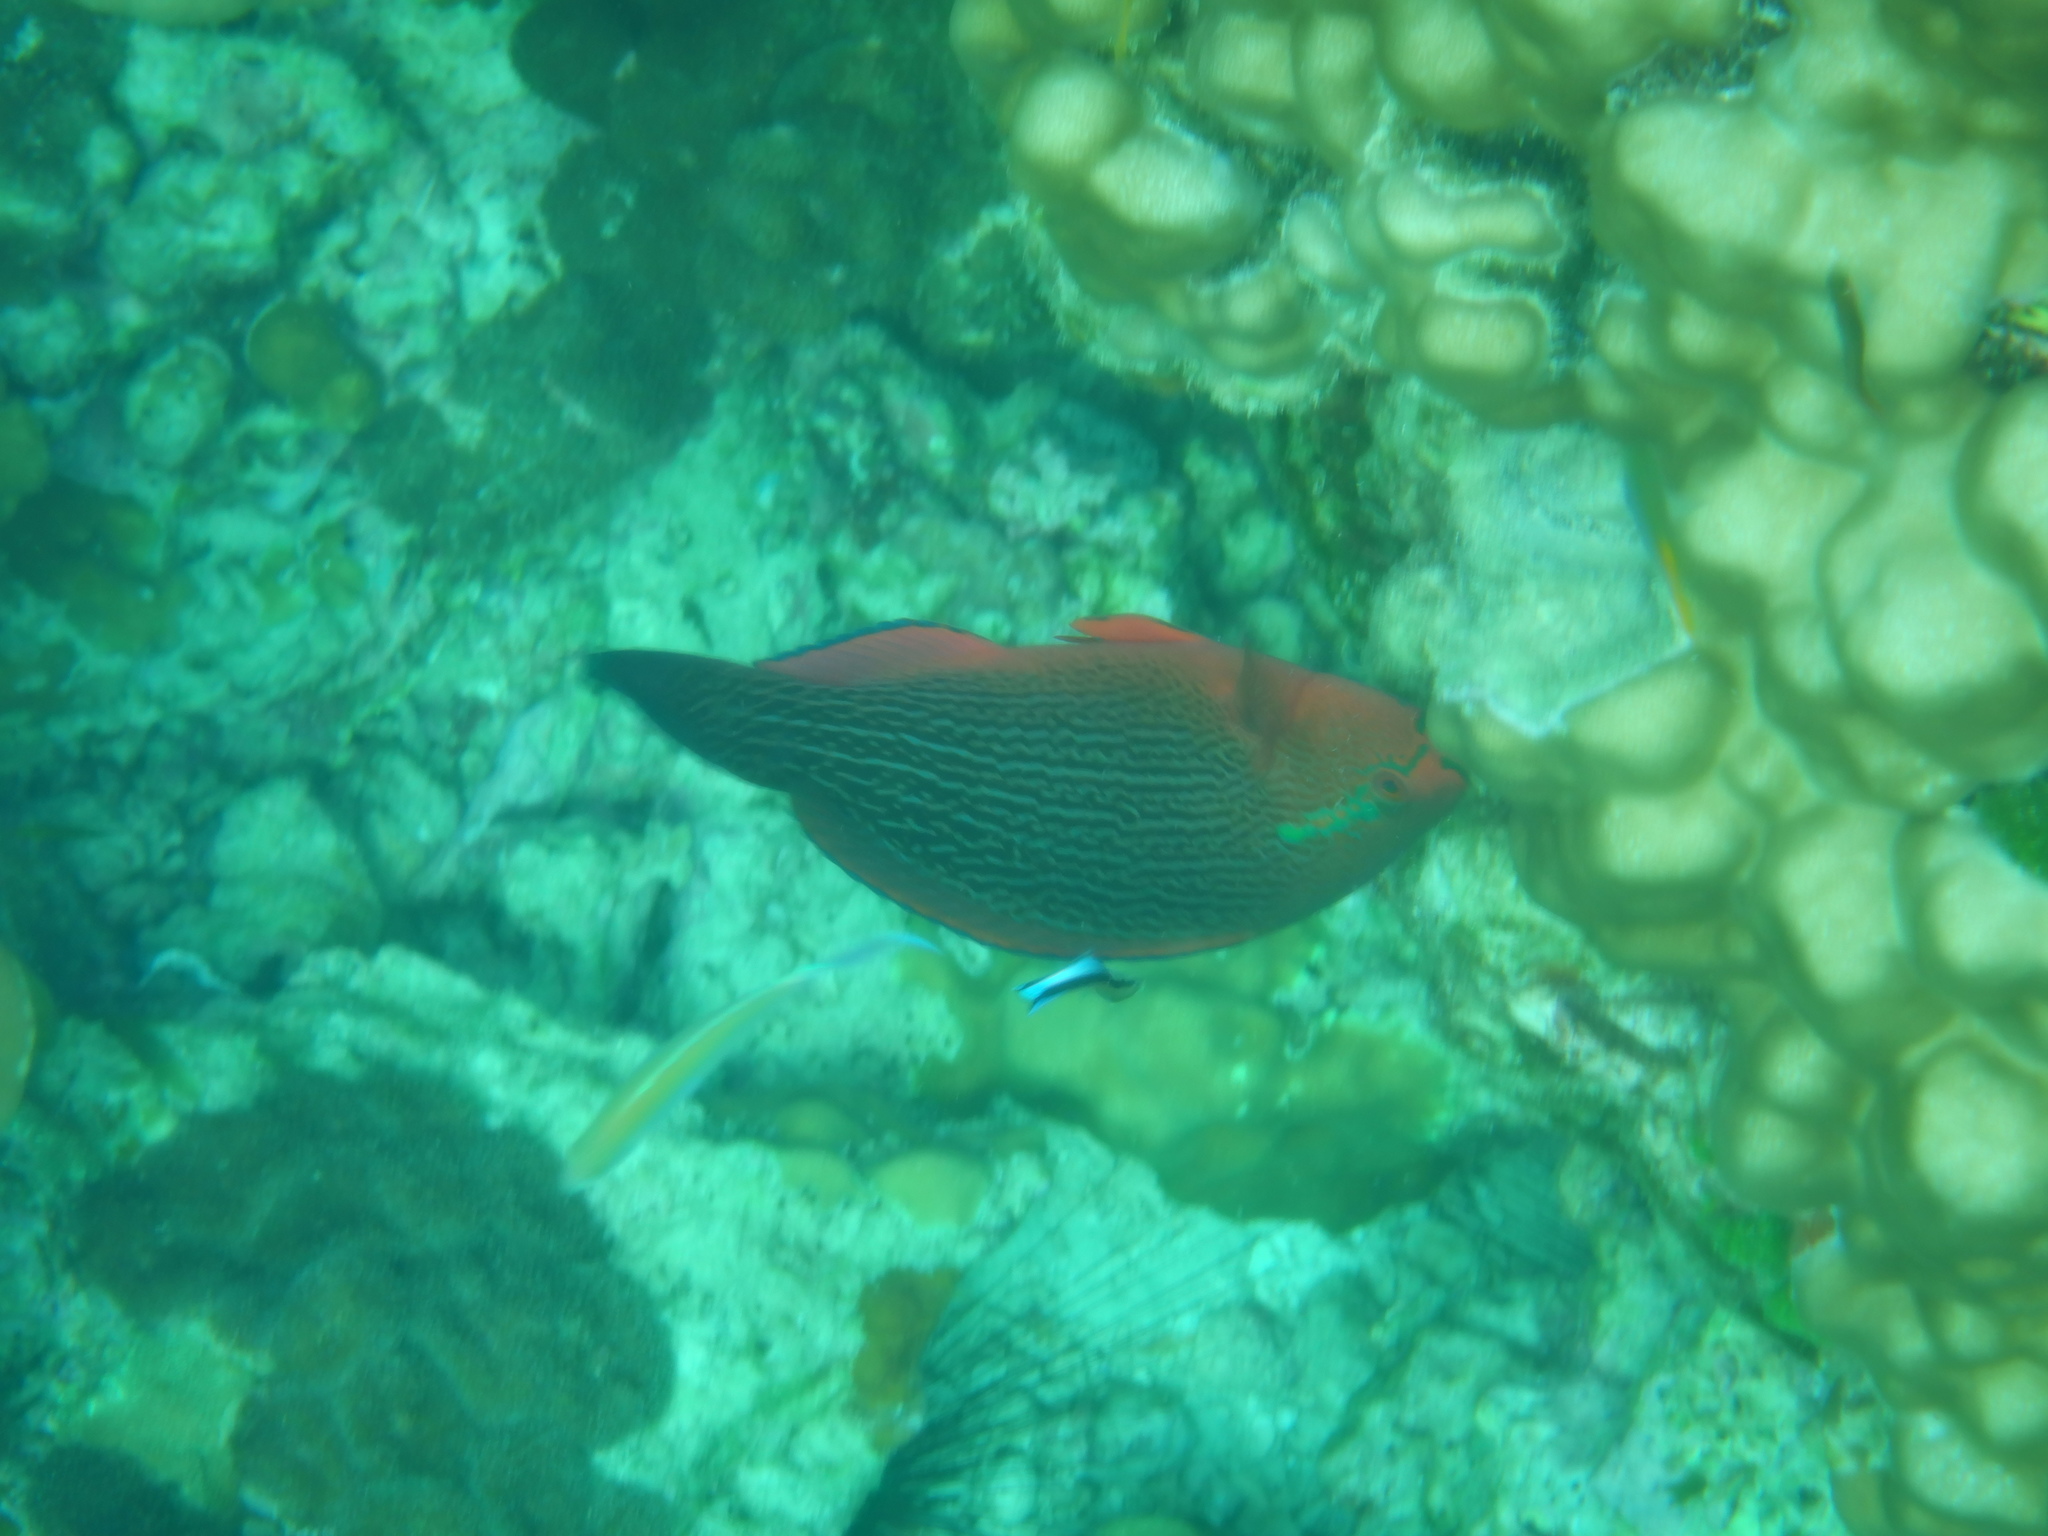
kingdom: Animalia
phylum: Chordata
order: Perciformes
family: Scaridae
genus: Scarus
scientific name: Scarus niger
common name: Dusky parrotfish
